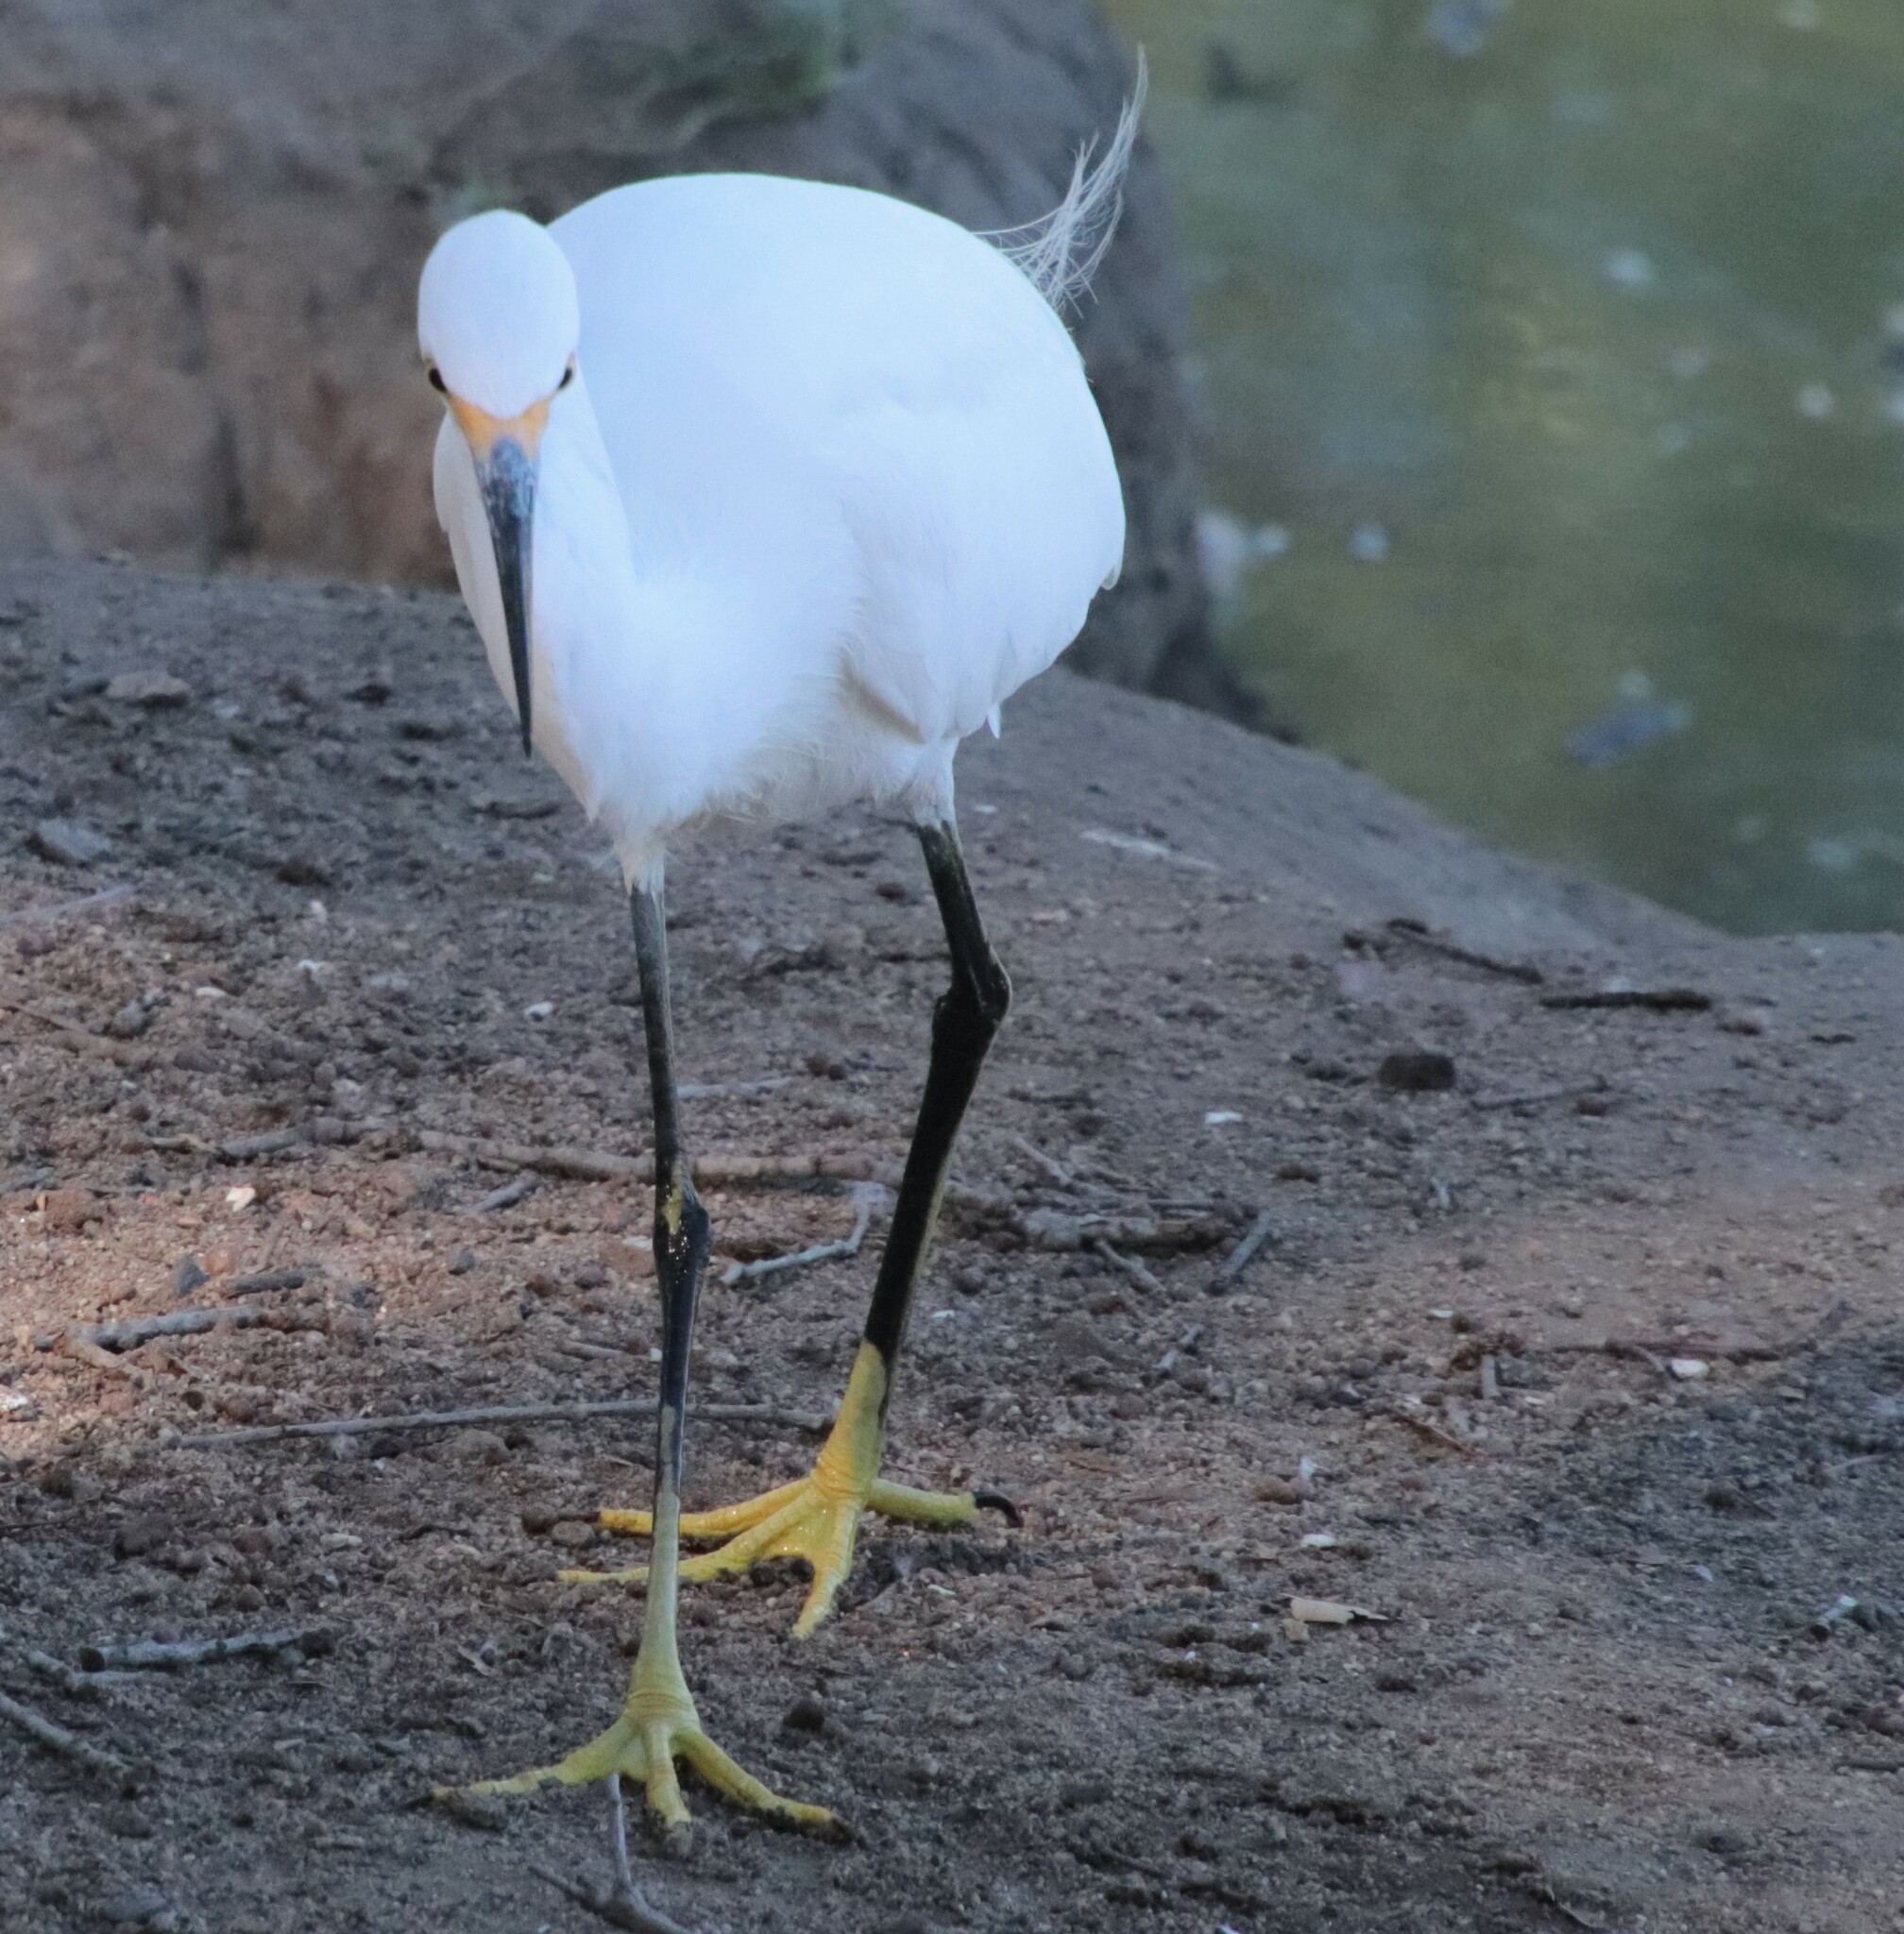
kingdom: Animalia
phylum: Chordata
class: Aves
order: Pelecaniformes
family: Ardeidae
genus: Egretta
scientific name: Egretta thula
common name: Snowy egret
